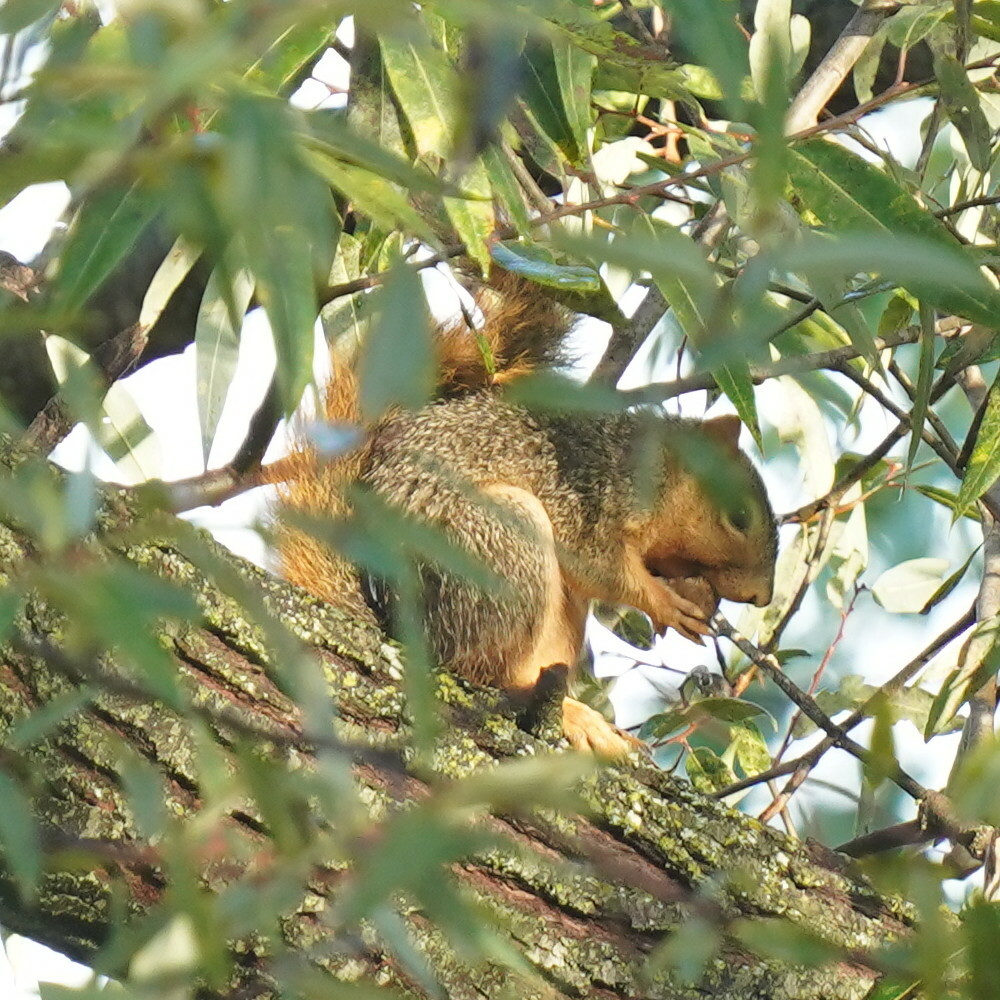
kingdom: Animalia
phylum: Chordata
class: Mammalia
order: Rodentia
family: Sciuridae
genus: Sciurus
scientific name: Sciurus niger
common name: Fox squirrel
